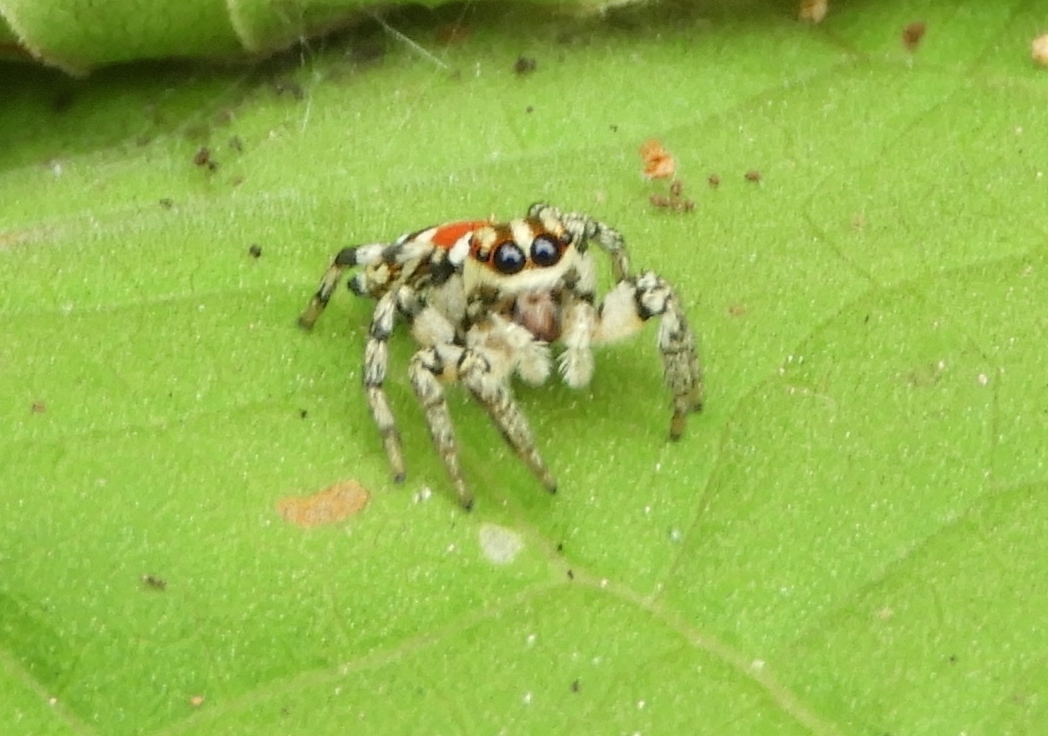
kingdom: Animalia
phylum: Arthropoda
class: Arachnida
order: Araneae
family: Salticidae
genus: Nycerella
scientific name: Nycerella delecta
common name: Jumping spiders
